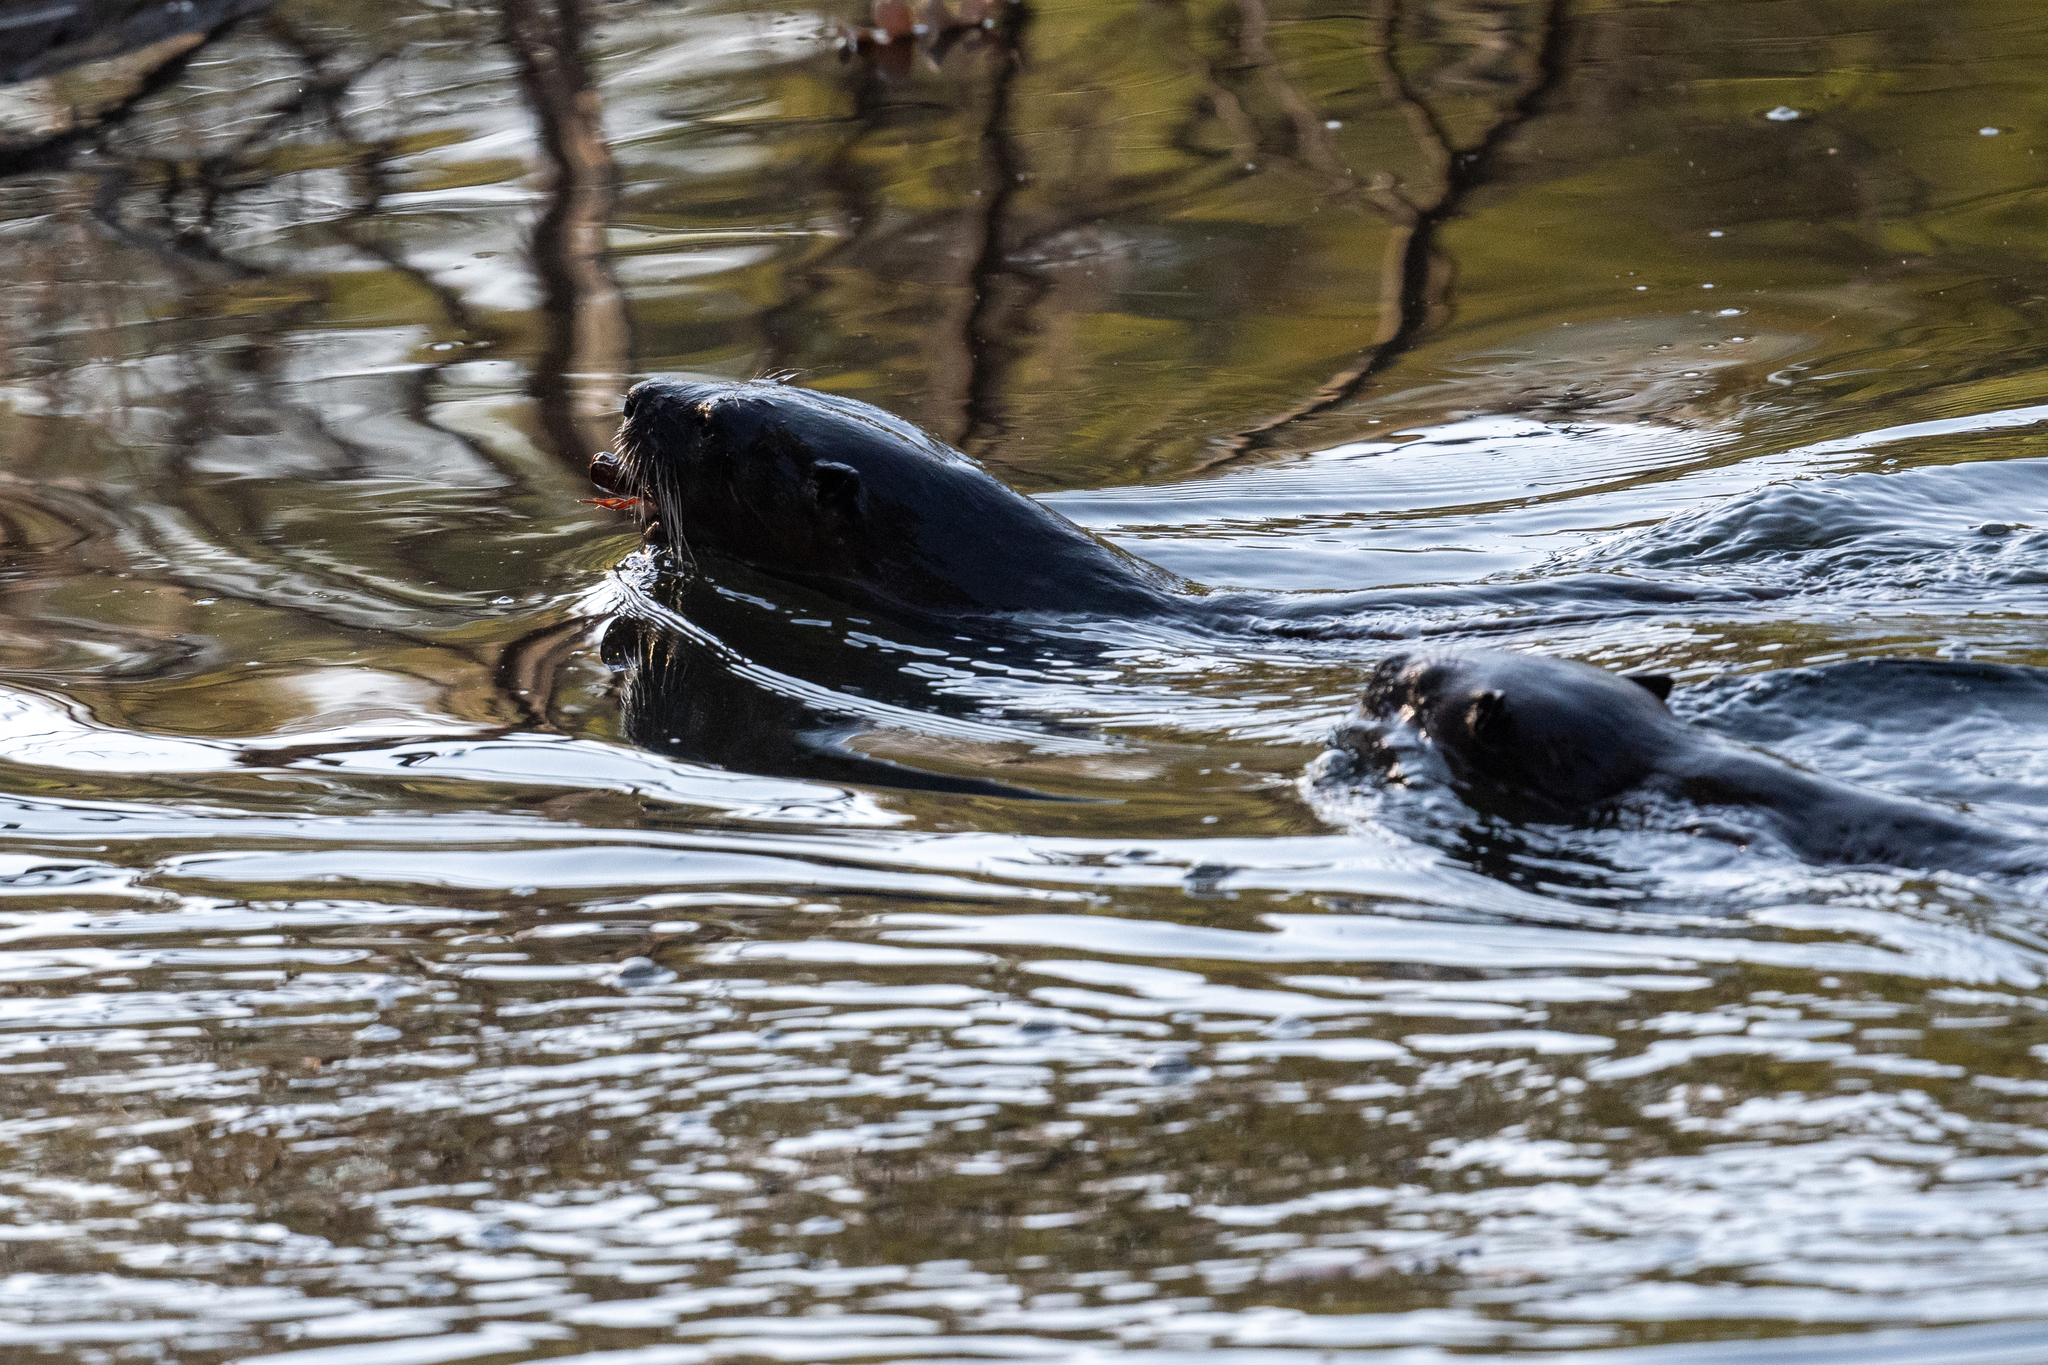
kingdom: Animalia
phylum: Chordata
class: Mammalia
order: Carnivora
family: Mustelidae
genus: Lontra
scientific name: Lontra canadensis
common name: North american river otter
